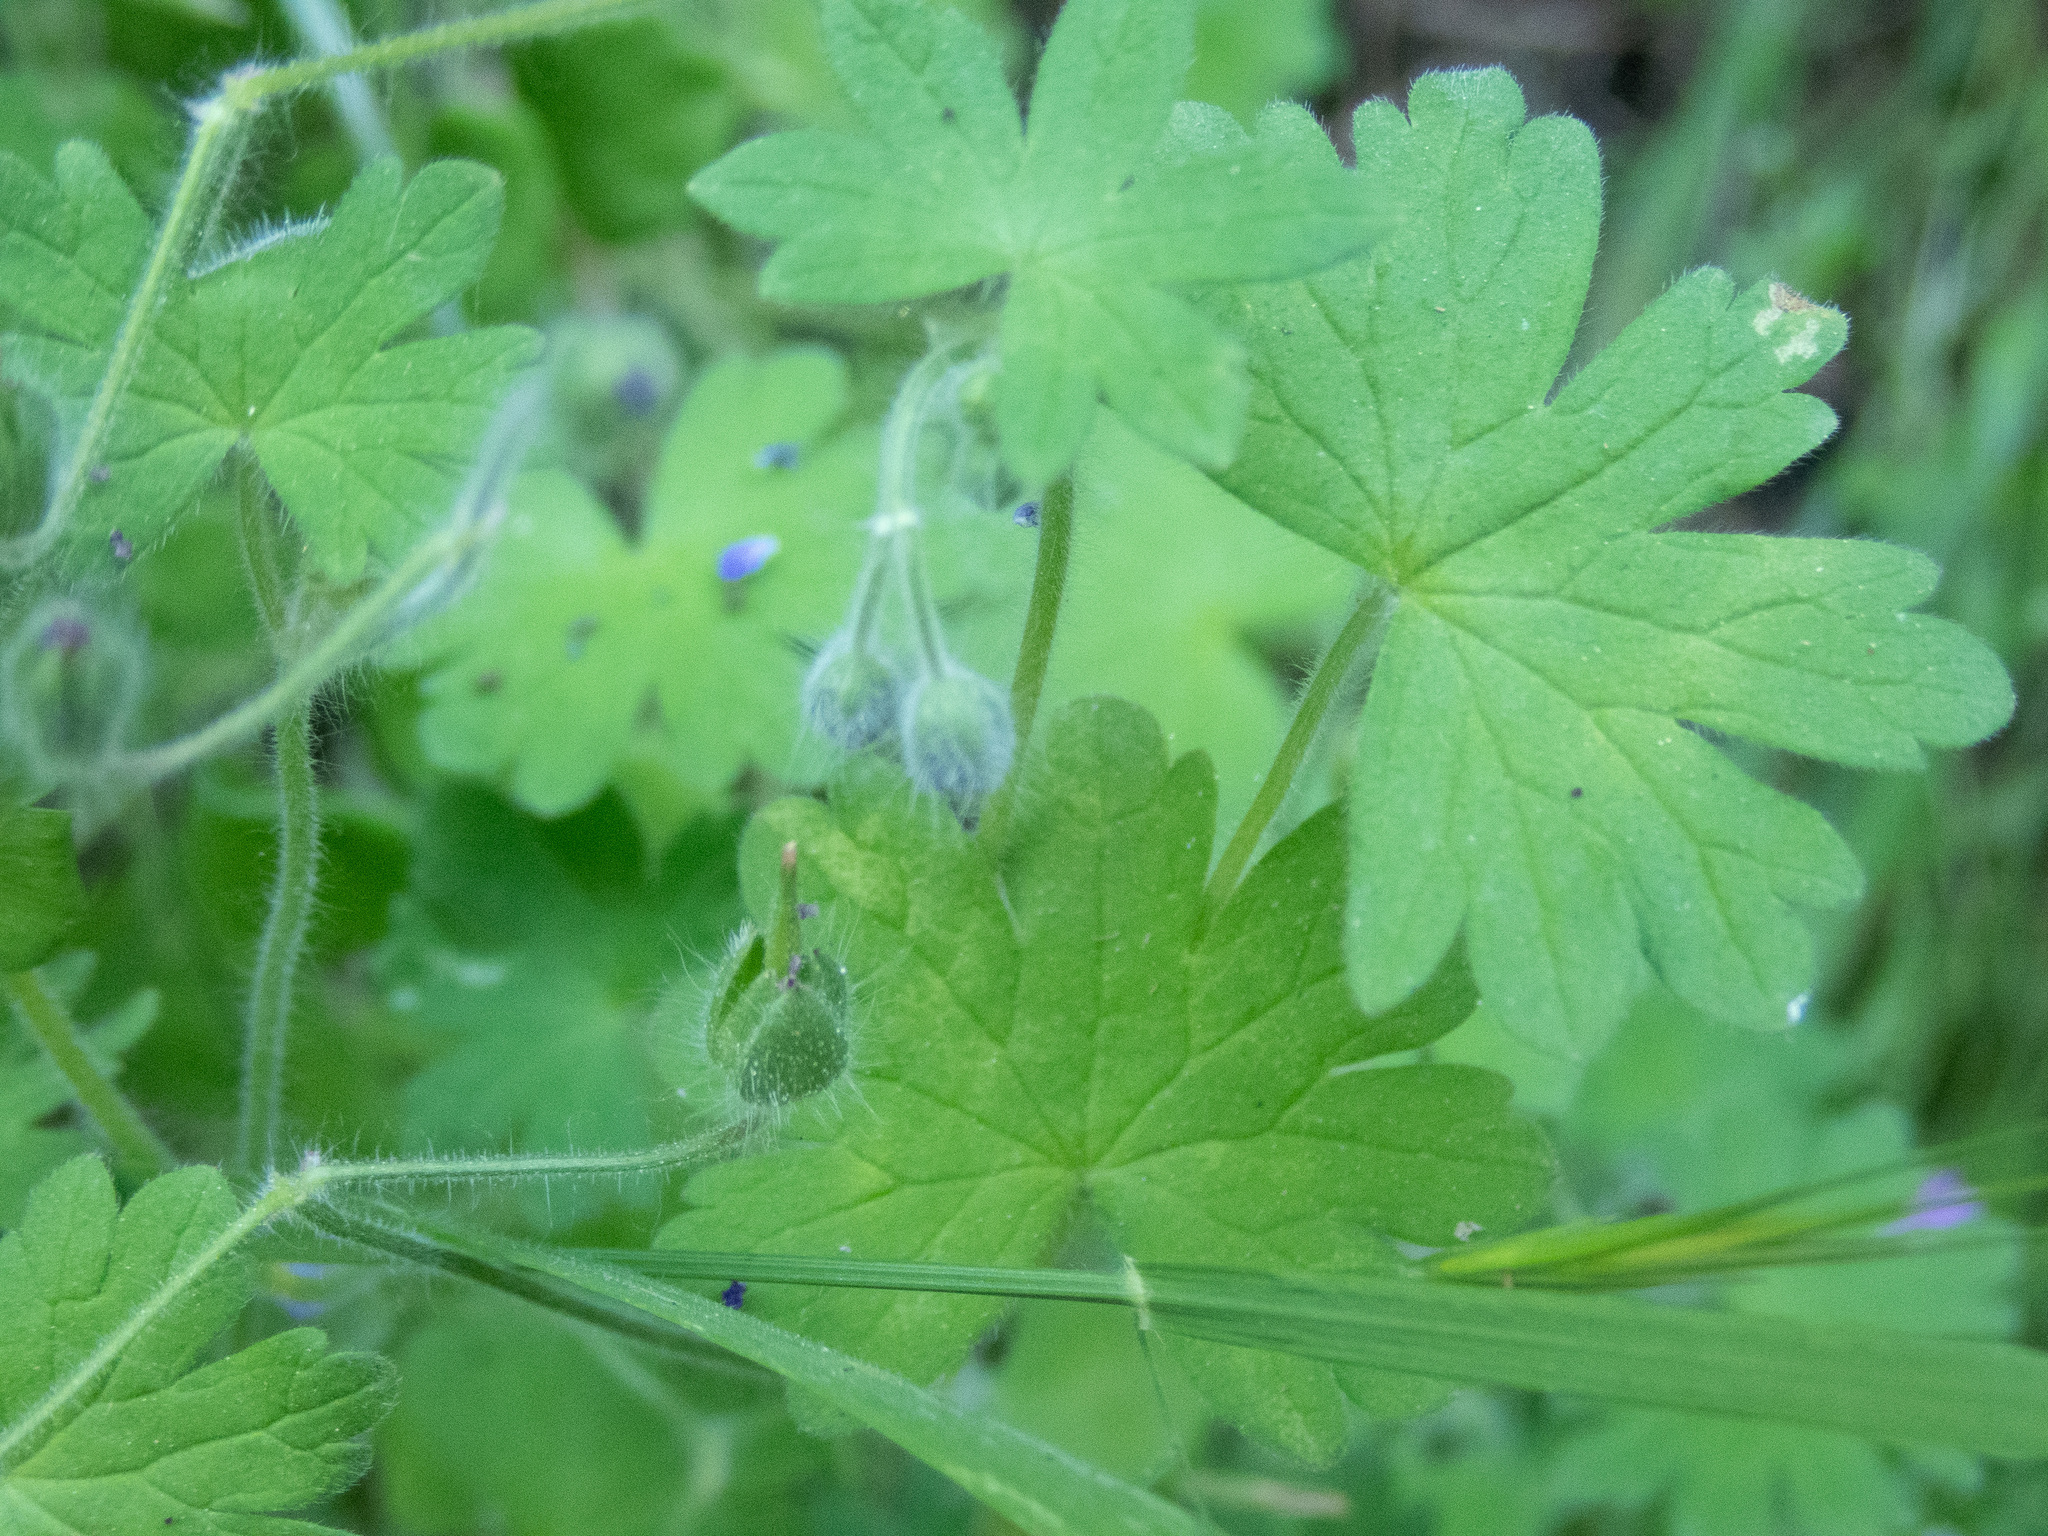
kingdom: Plantae
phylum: Tracheophyta
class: Magnoliopsida
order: Geraniales
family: Geraniaceae
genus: Geranium
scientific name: Geranium molle
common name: Dove's-foot crane's-bill
